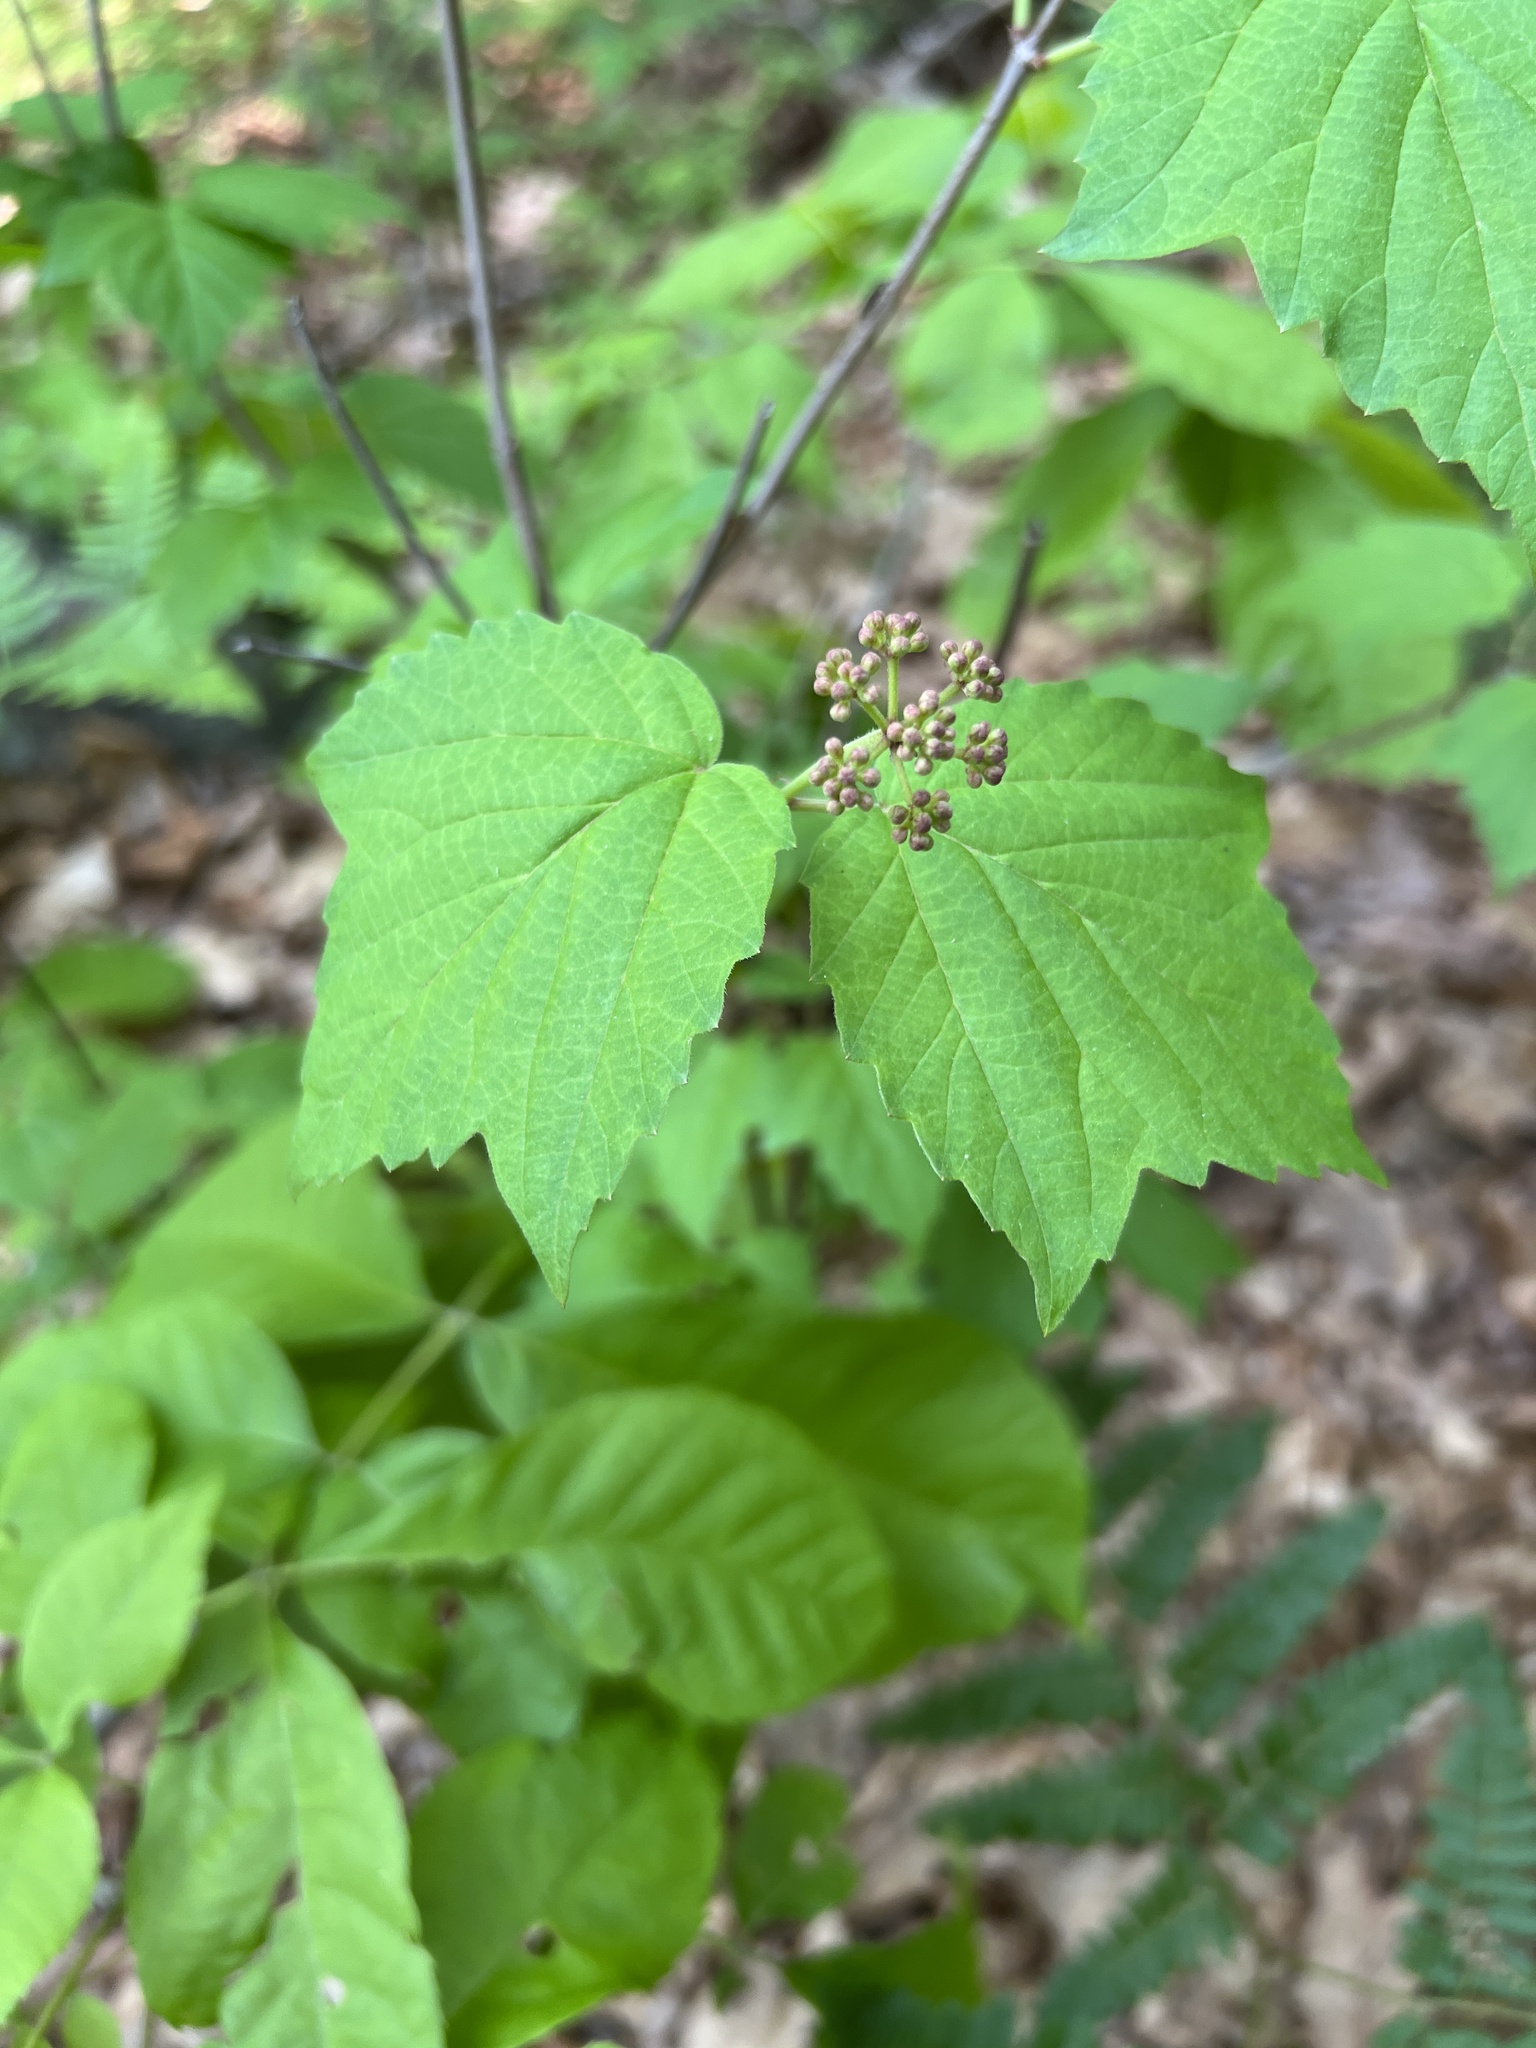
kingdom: Plantae
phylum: Tracheophyta
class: Magnoliopsida
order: Dipsacales
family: Viburnaceae
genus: Viburnum
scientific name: Viburnum acerifolium
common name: Dockmackie
